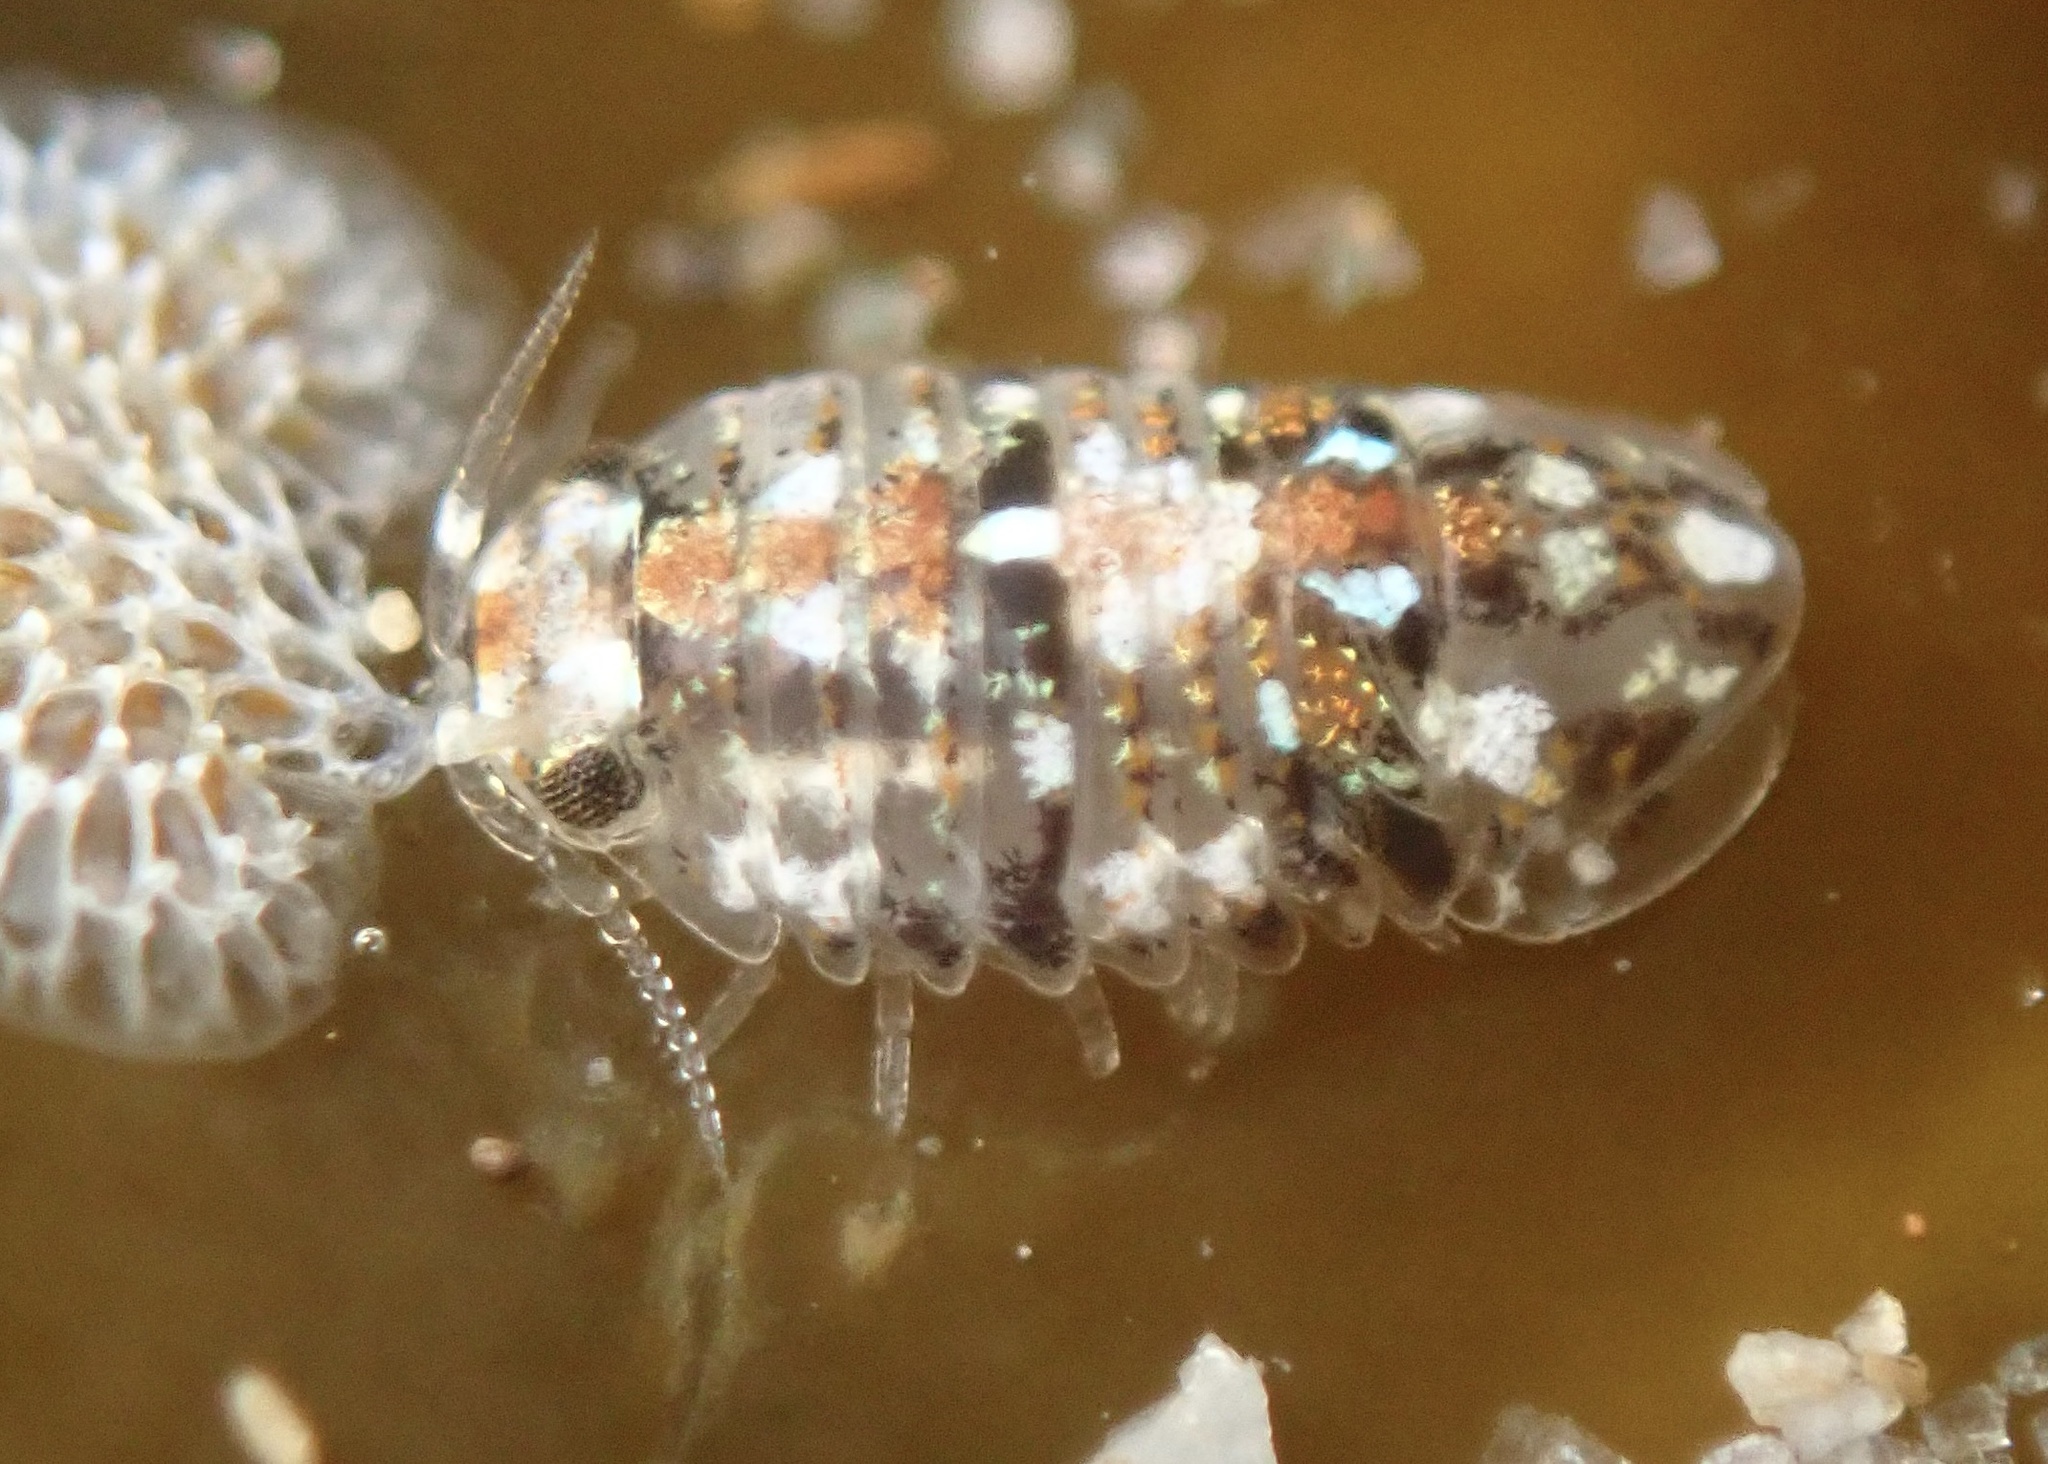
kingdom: Animalia
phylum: Arthropoda
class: Malacostraca
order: Isopoda
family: Sphaeromatidae
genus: Exosphaeroma
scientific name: Exosphaeroma inornata
